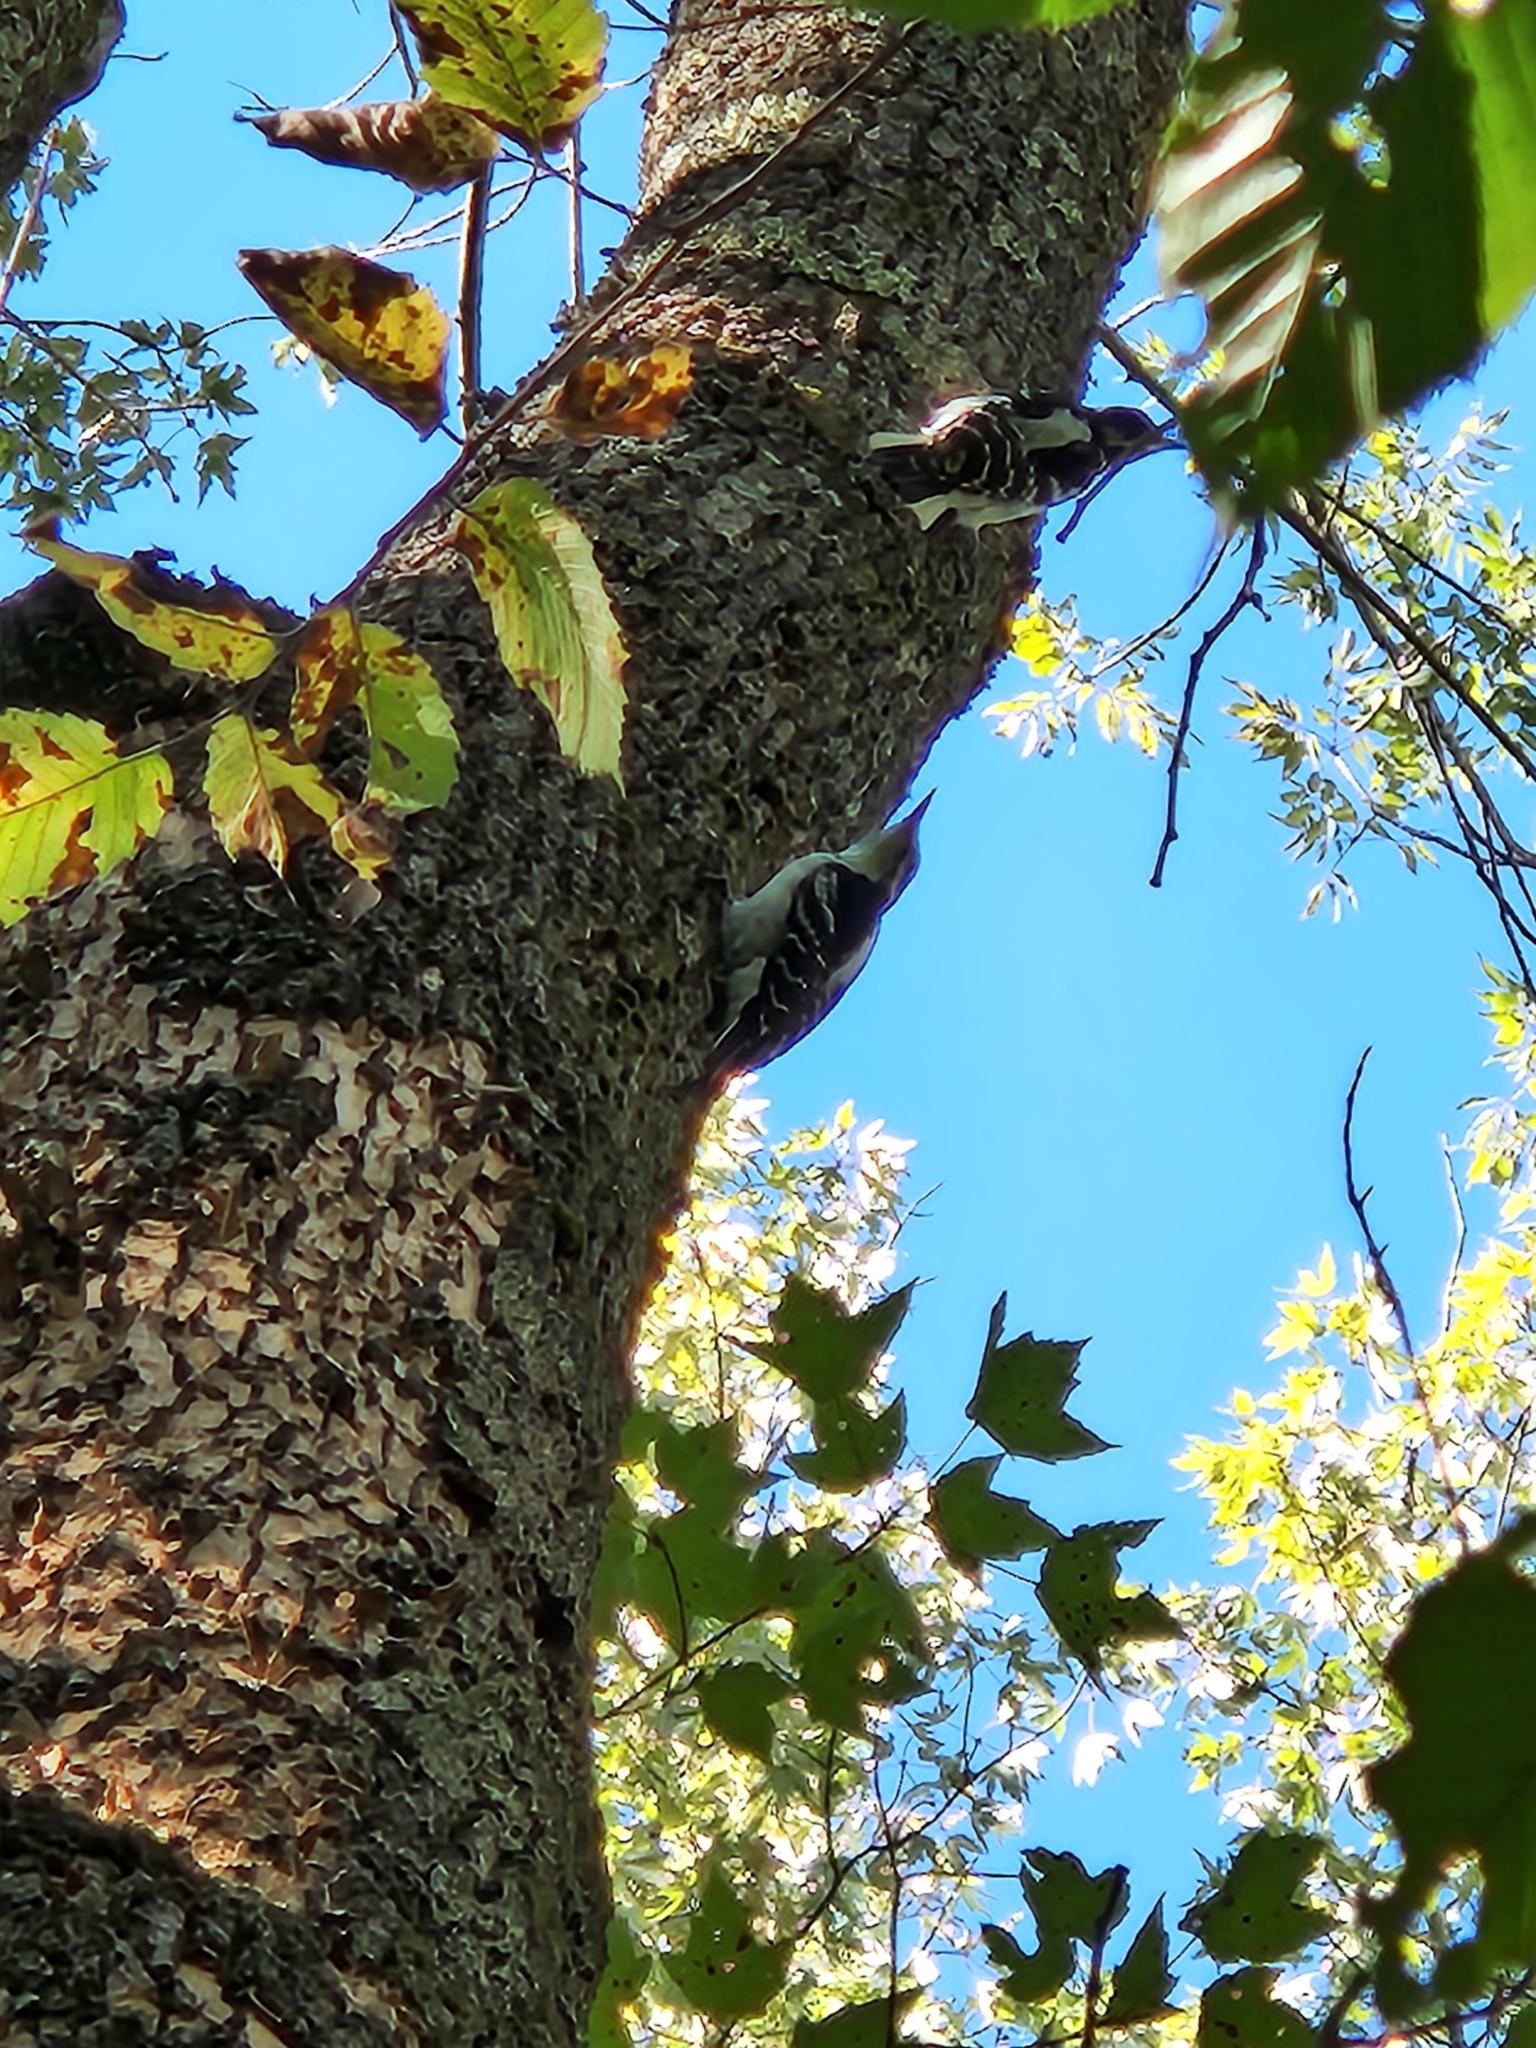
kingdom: Animalia
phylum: Chordata
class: Aves
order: Piciformes
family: Picidae
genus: Leuconotopicus
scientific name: Leuconotopicus villosus
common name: Hairy woodpecker
